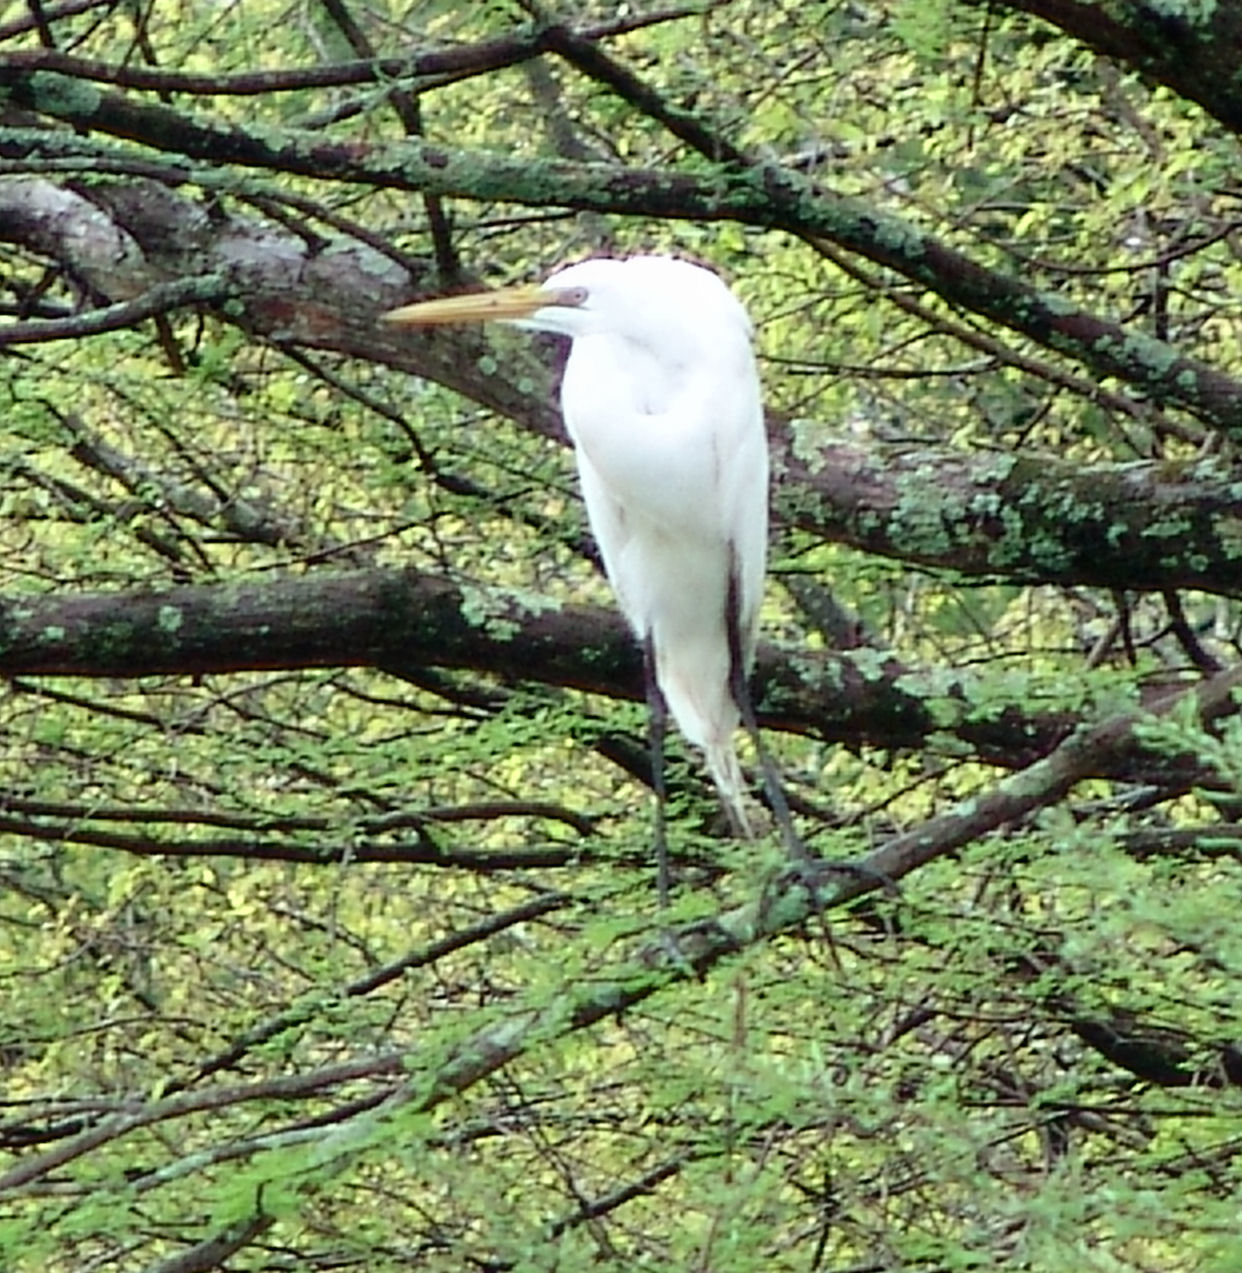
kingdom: Animalia
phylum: Chordata
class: Aves
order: Pelecaniformes
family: Ardeidae
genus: Ardea
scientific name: Ardea alba
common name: Great egret
